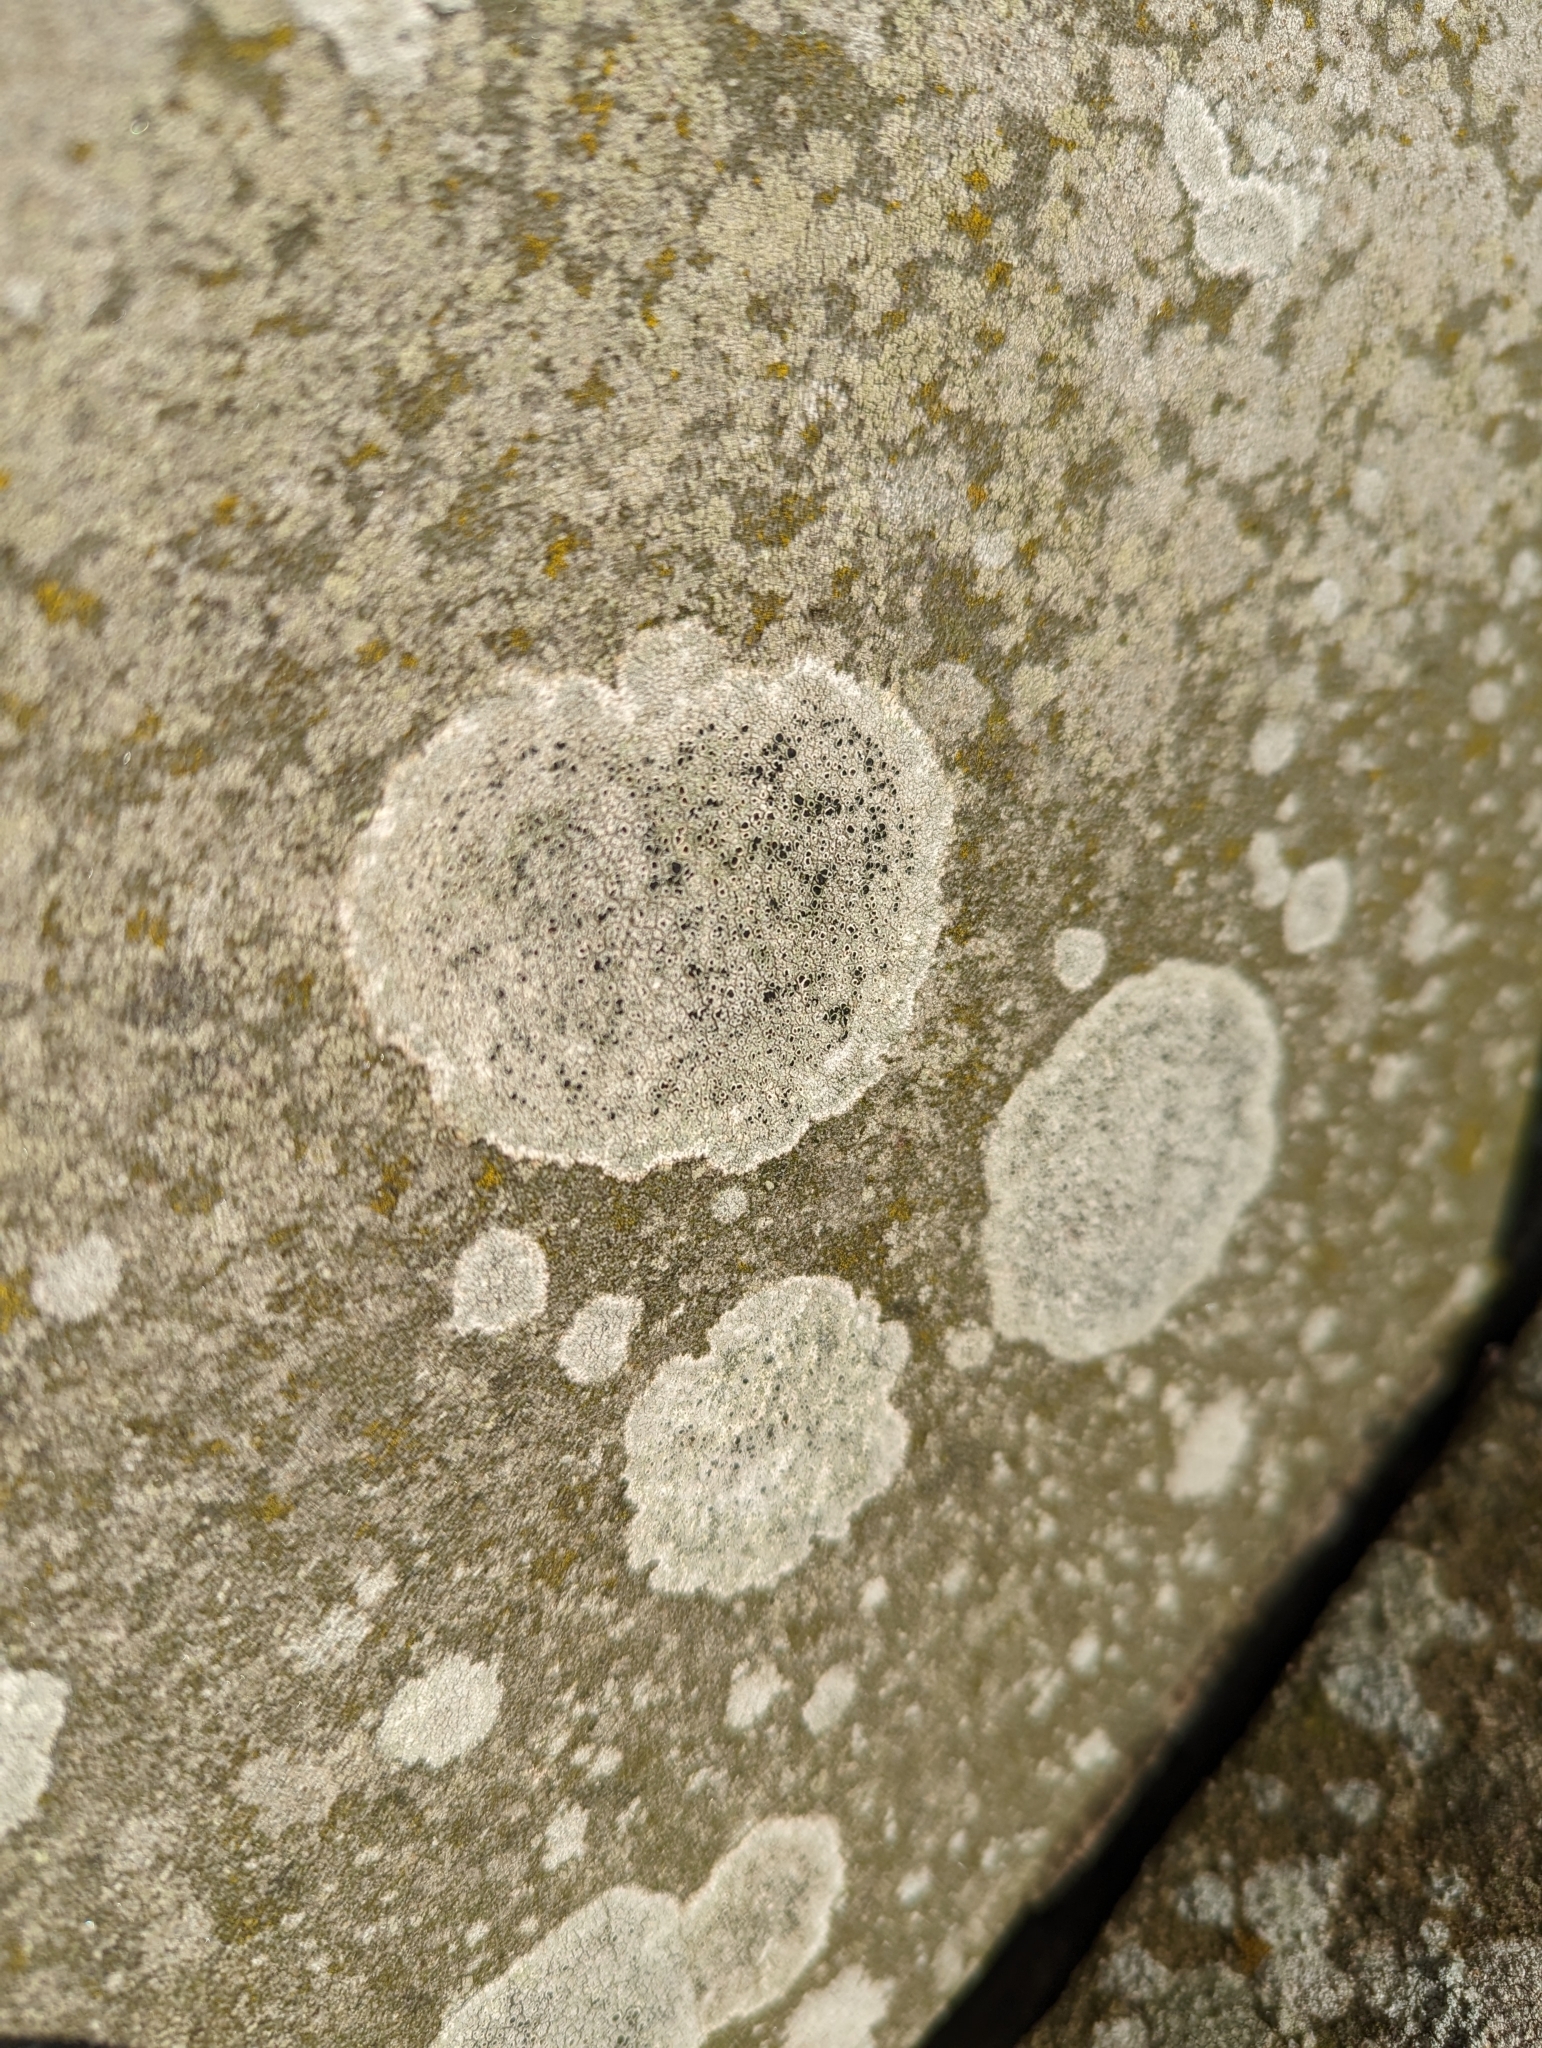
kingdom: Fungi
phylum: Ascomycota
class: Lecanoromycetes
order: Lecanorales
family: Lecanoraceae
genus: Lecanora
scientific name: Lecanora campestris
